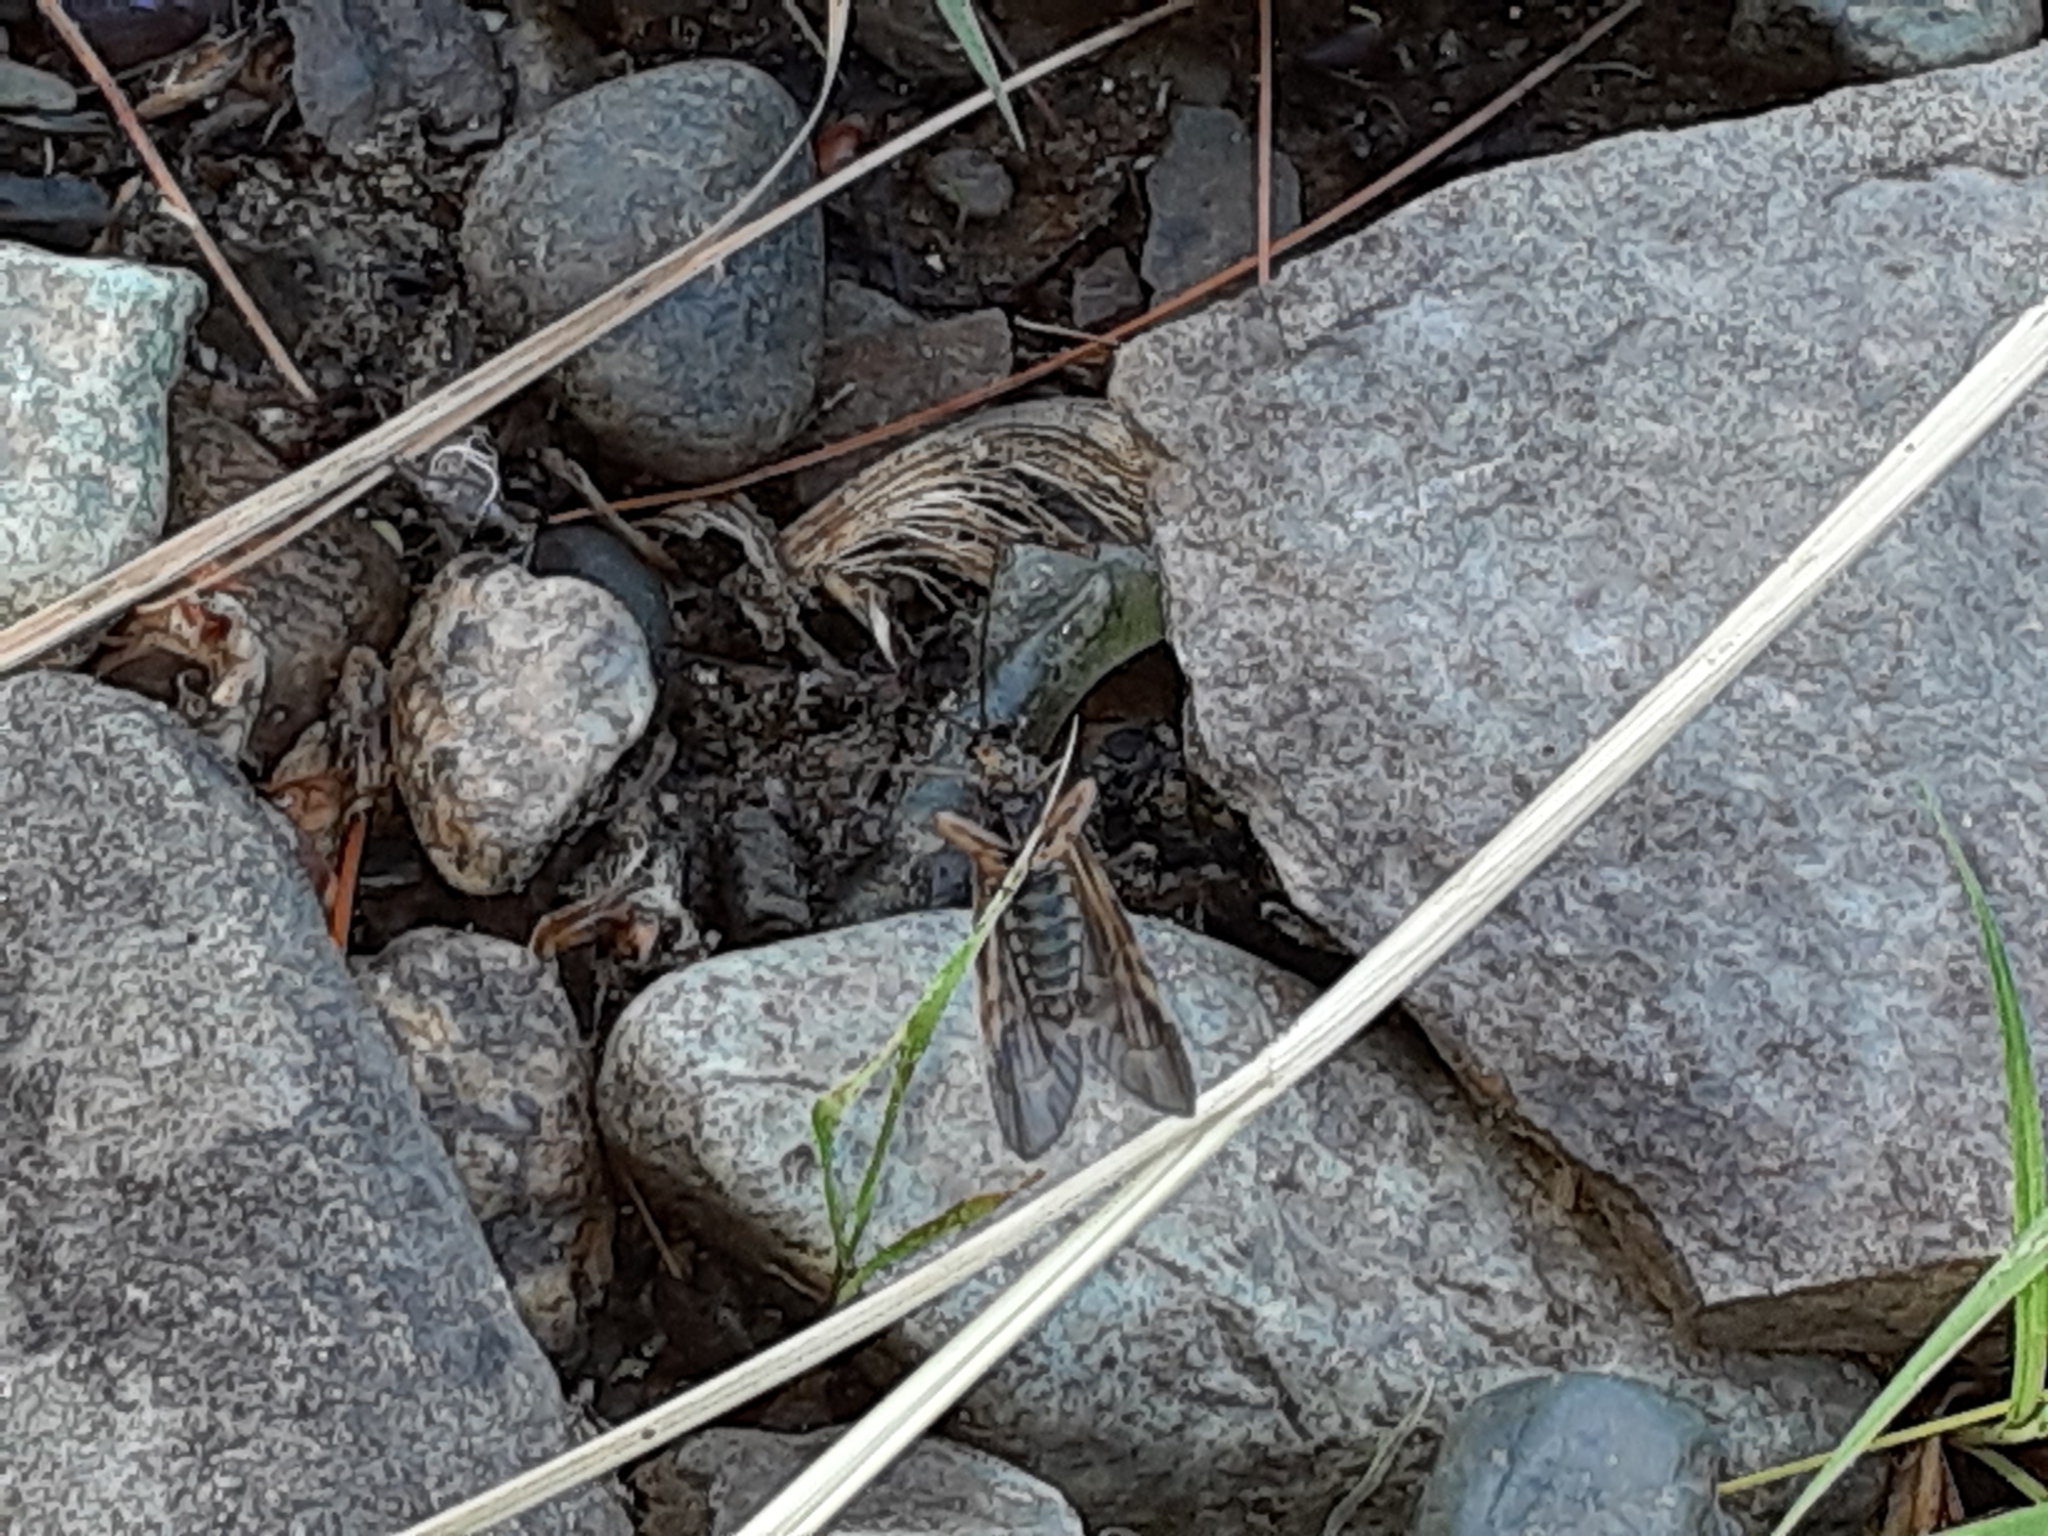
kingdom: Animalia
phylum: Arthropoda
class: Insecta
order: Trichoptera
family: Hydropsychidae
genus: Macrostemum
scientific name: Macrostemum zebratum
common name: Zebra caddisfly
